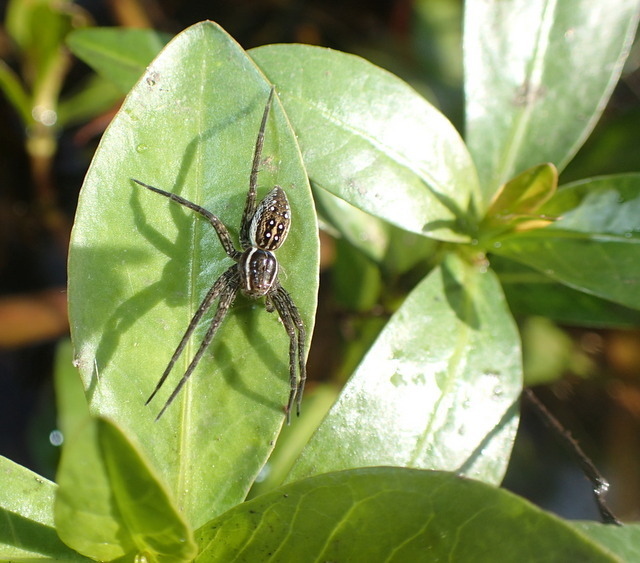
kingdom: Animalia
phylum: Arthropoda
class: Arachnida
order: Araneae
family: Pisauridae
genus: Dolomedes
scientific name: Dolomedes triton
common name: Six-spotted fishing spider
